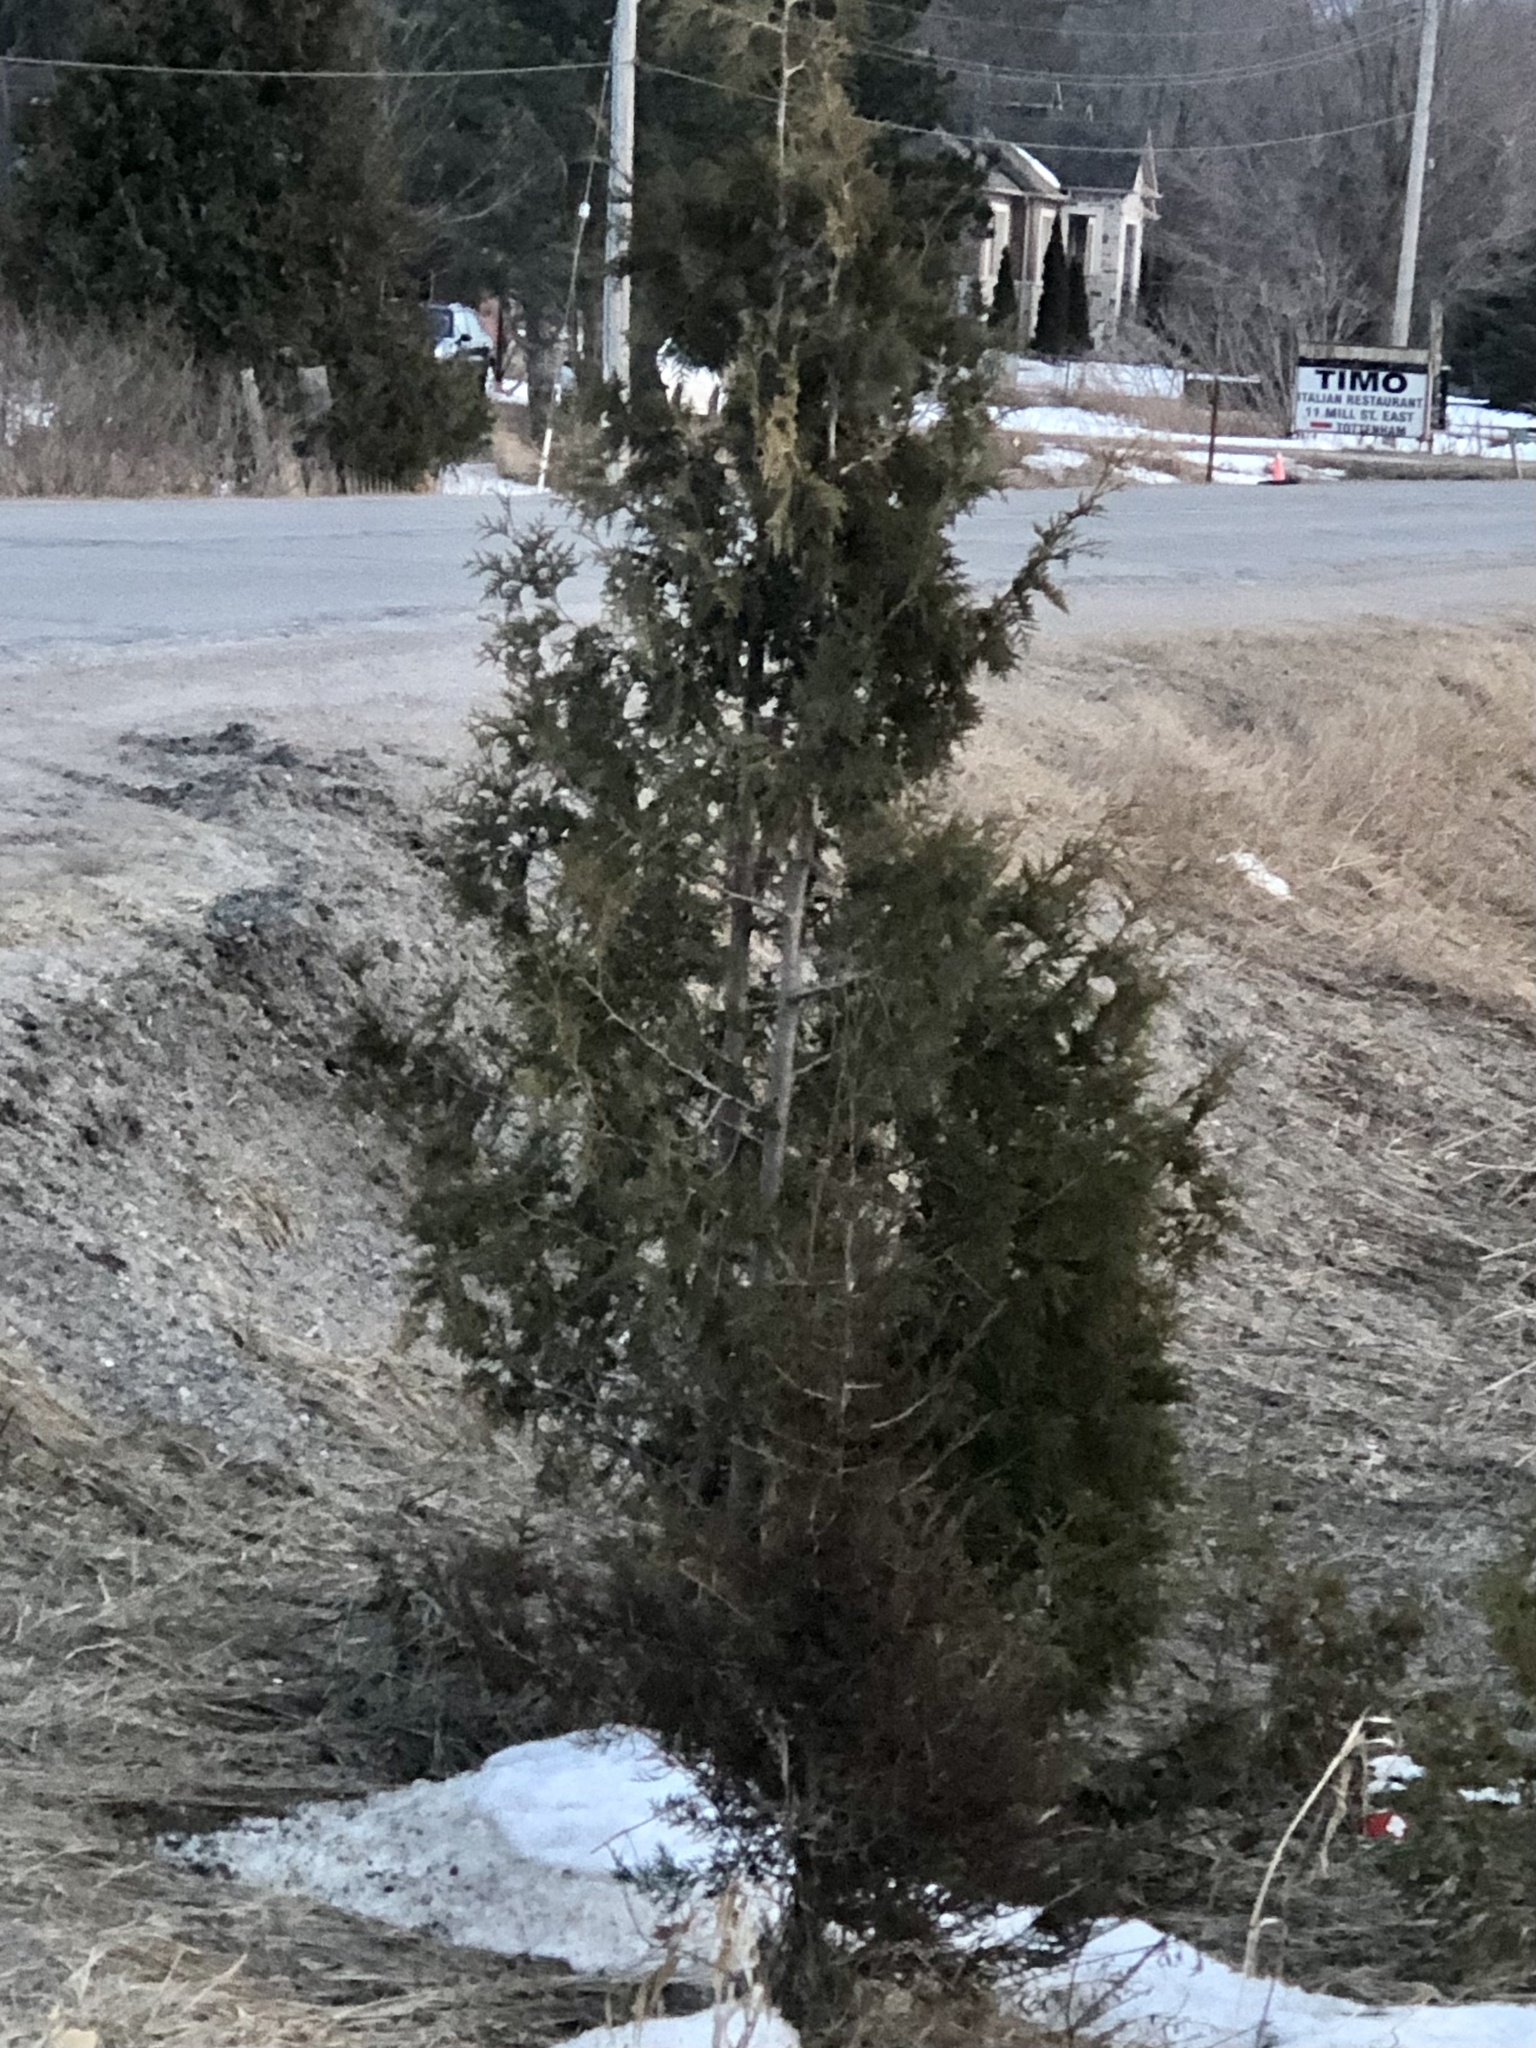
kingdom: Plantae
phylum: Tracheophyta
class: Pinopsida
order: Pinales
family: Cupressaceae
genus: Thuja
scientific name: Thuja occidentalis
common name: Northern white-cedar
